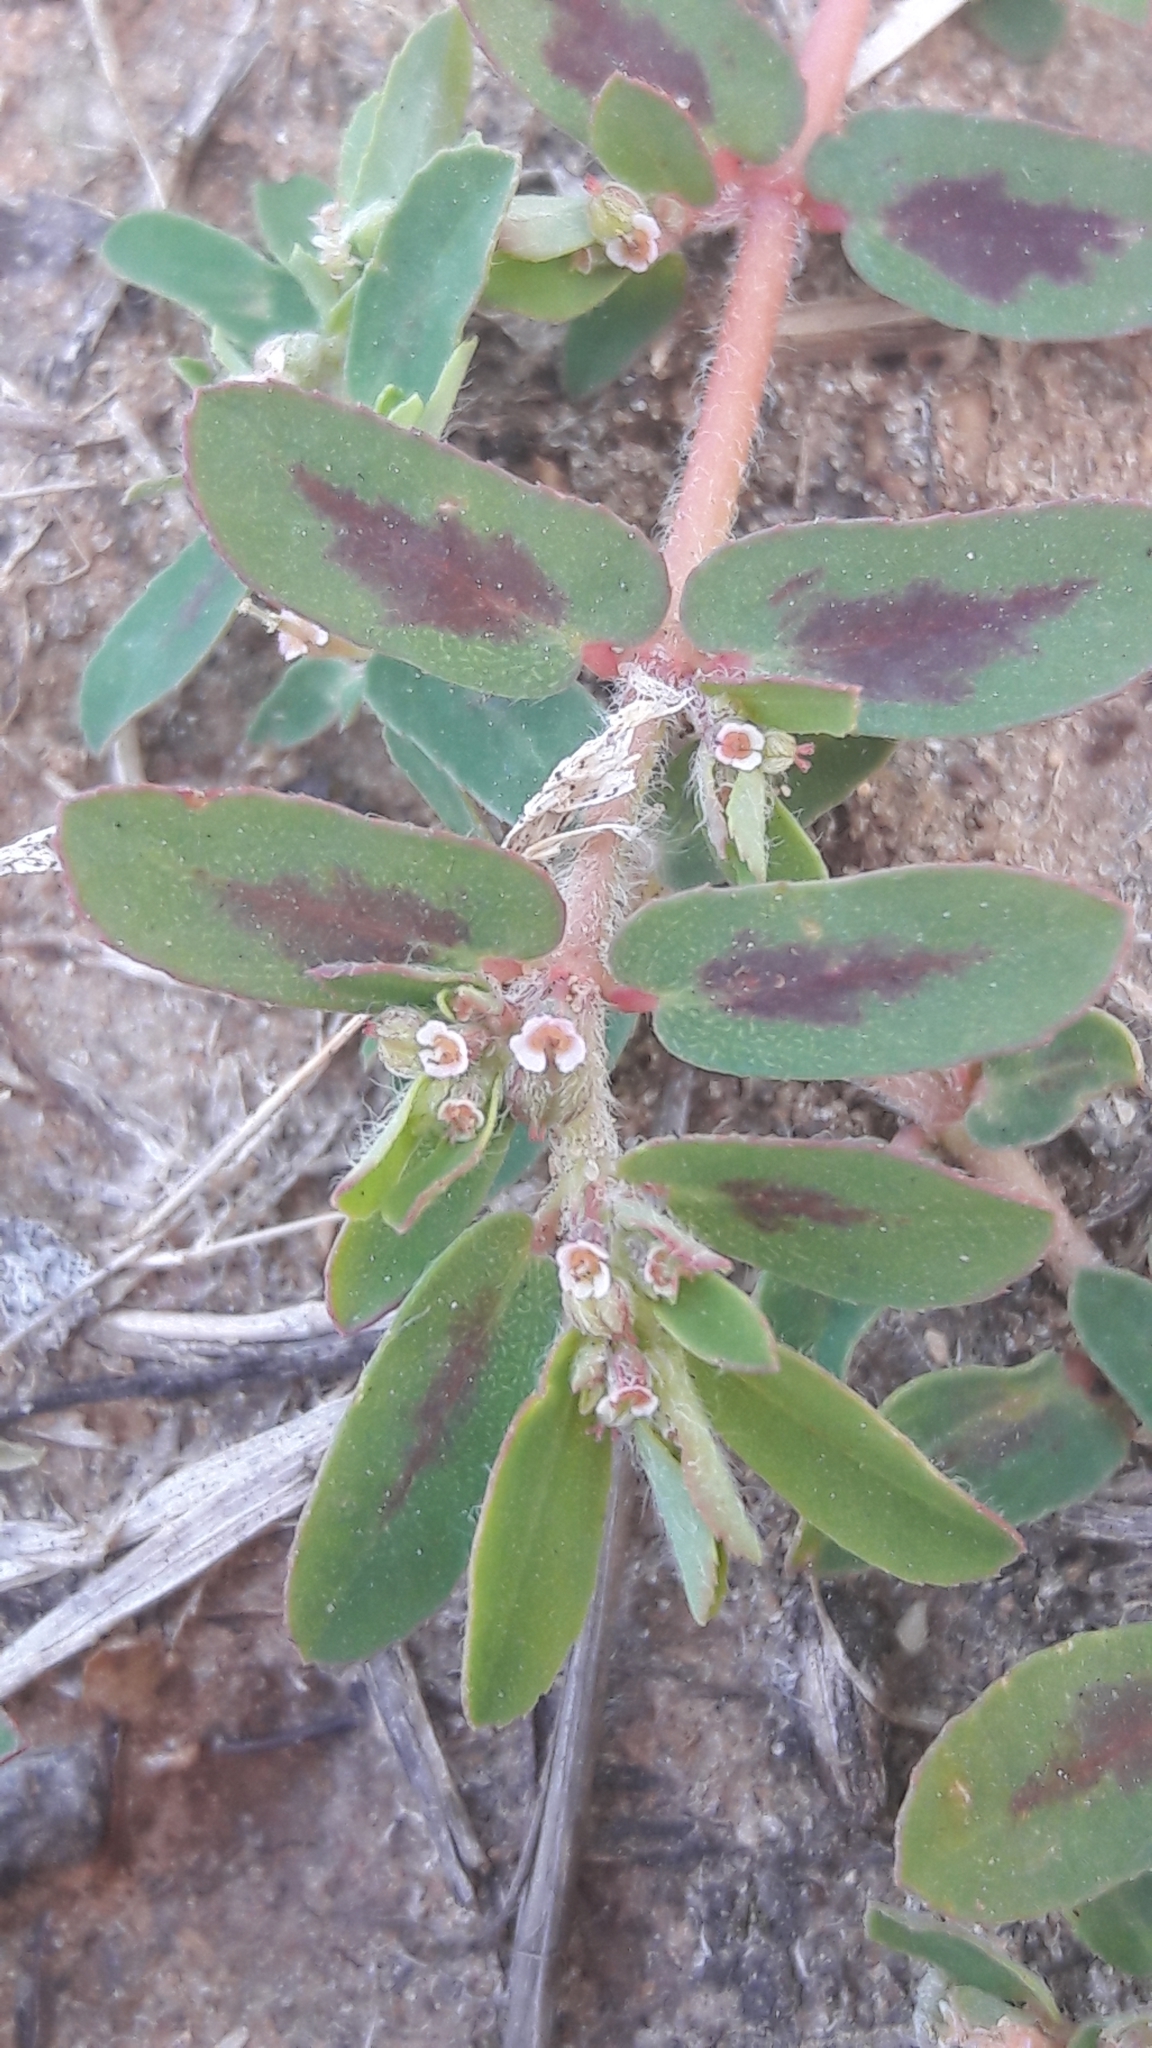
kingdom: Plantae
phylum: Tracheophyta
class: Magnoliopsida
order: Malpighiales
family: Euphorbiaceae
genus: Euphorbia
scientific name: Euphorbia maculata
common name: Spotted spurge
